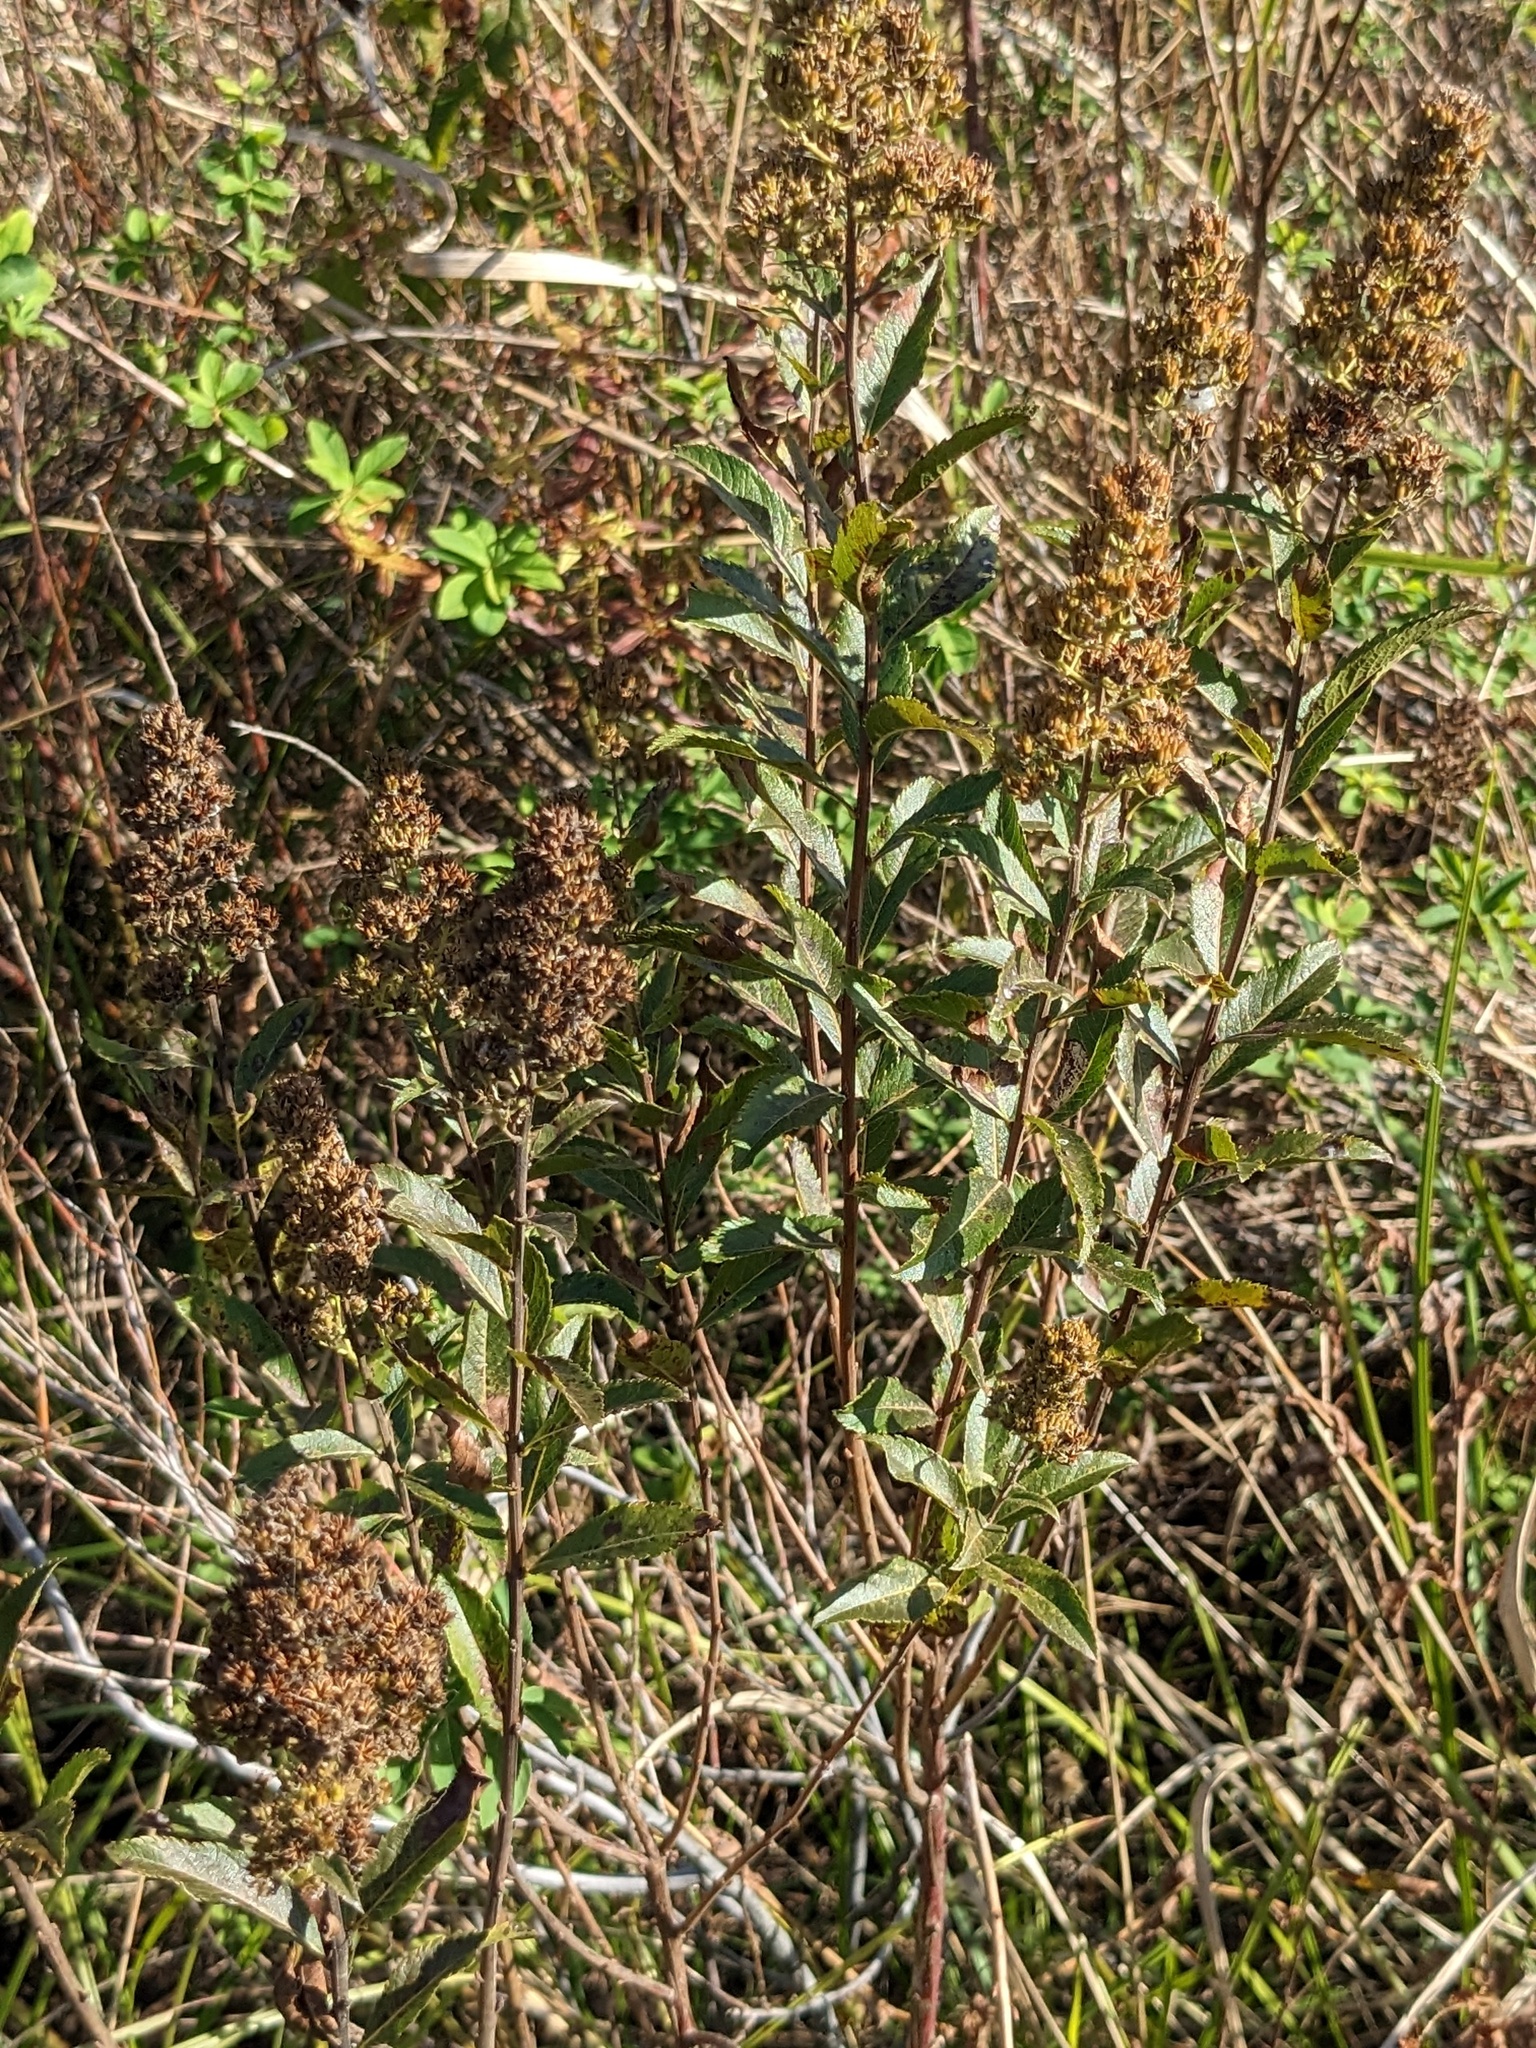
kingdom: Plantae
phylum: Tracheophyta
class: Magnoliopsida
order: Rosales
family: Rosaceae
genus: Spiraea
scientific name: Spiraea salicifolia
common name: Bridewort
